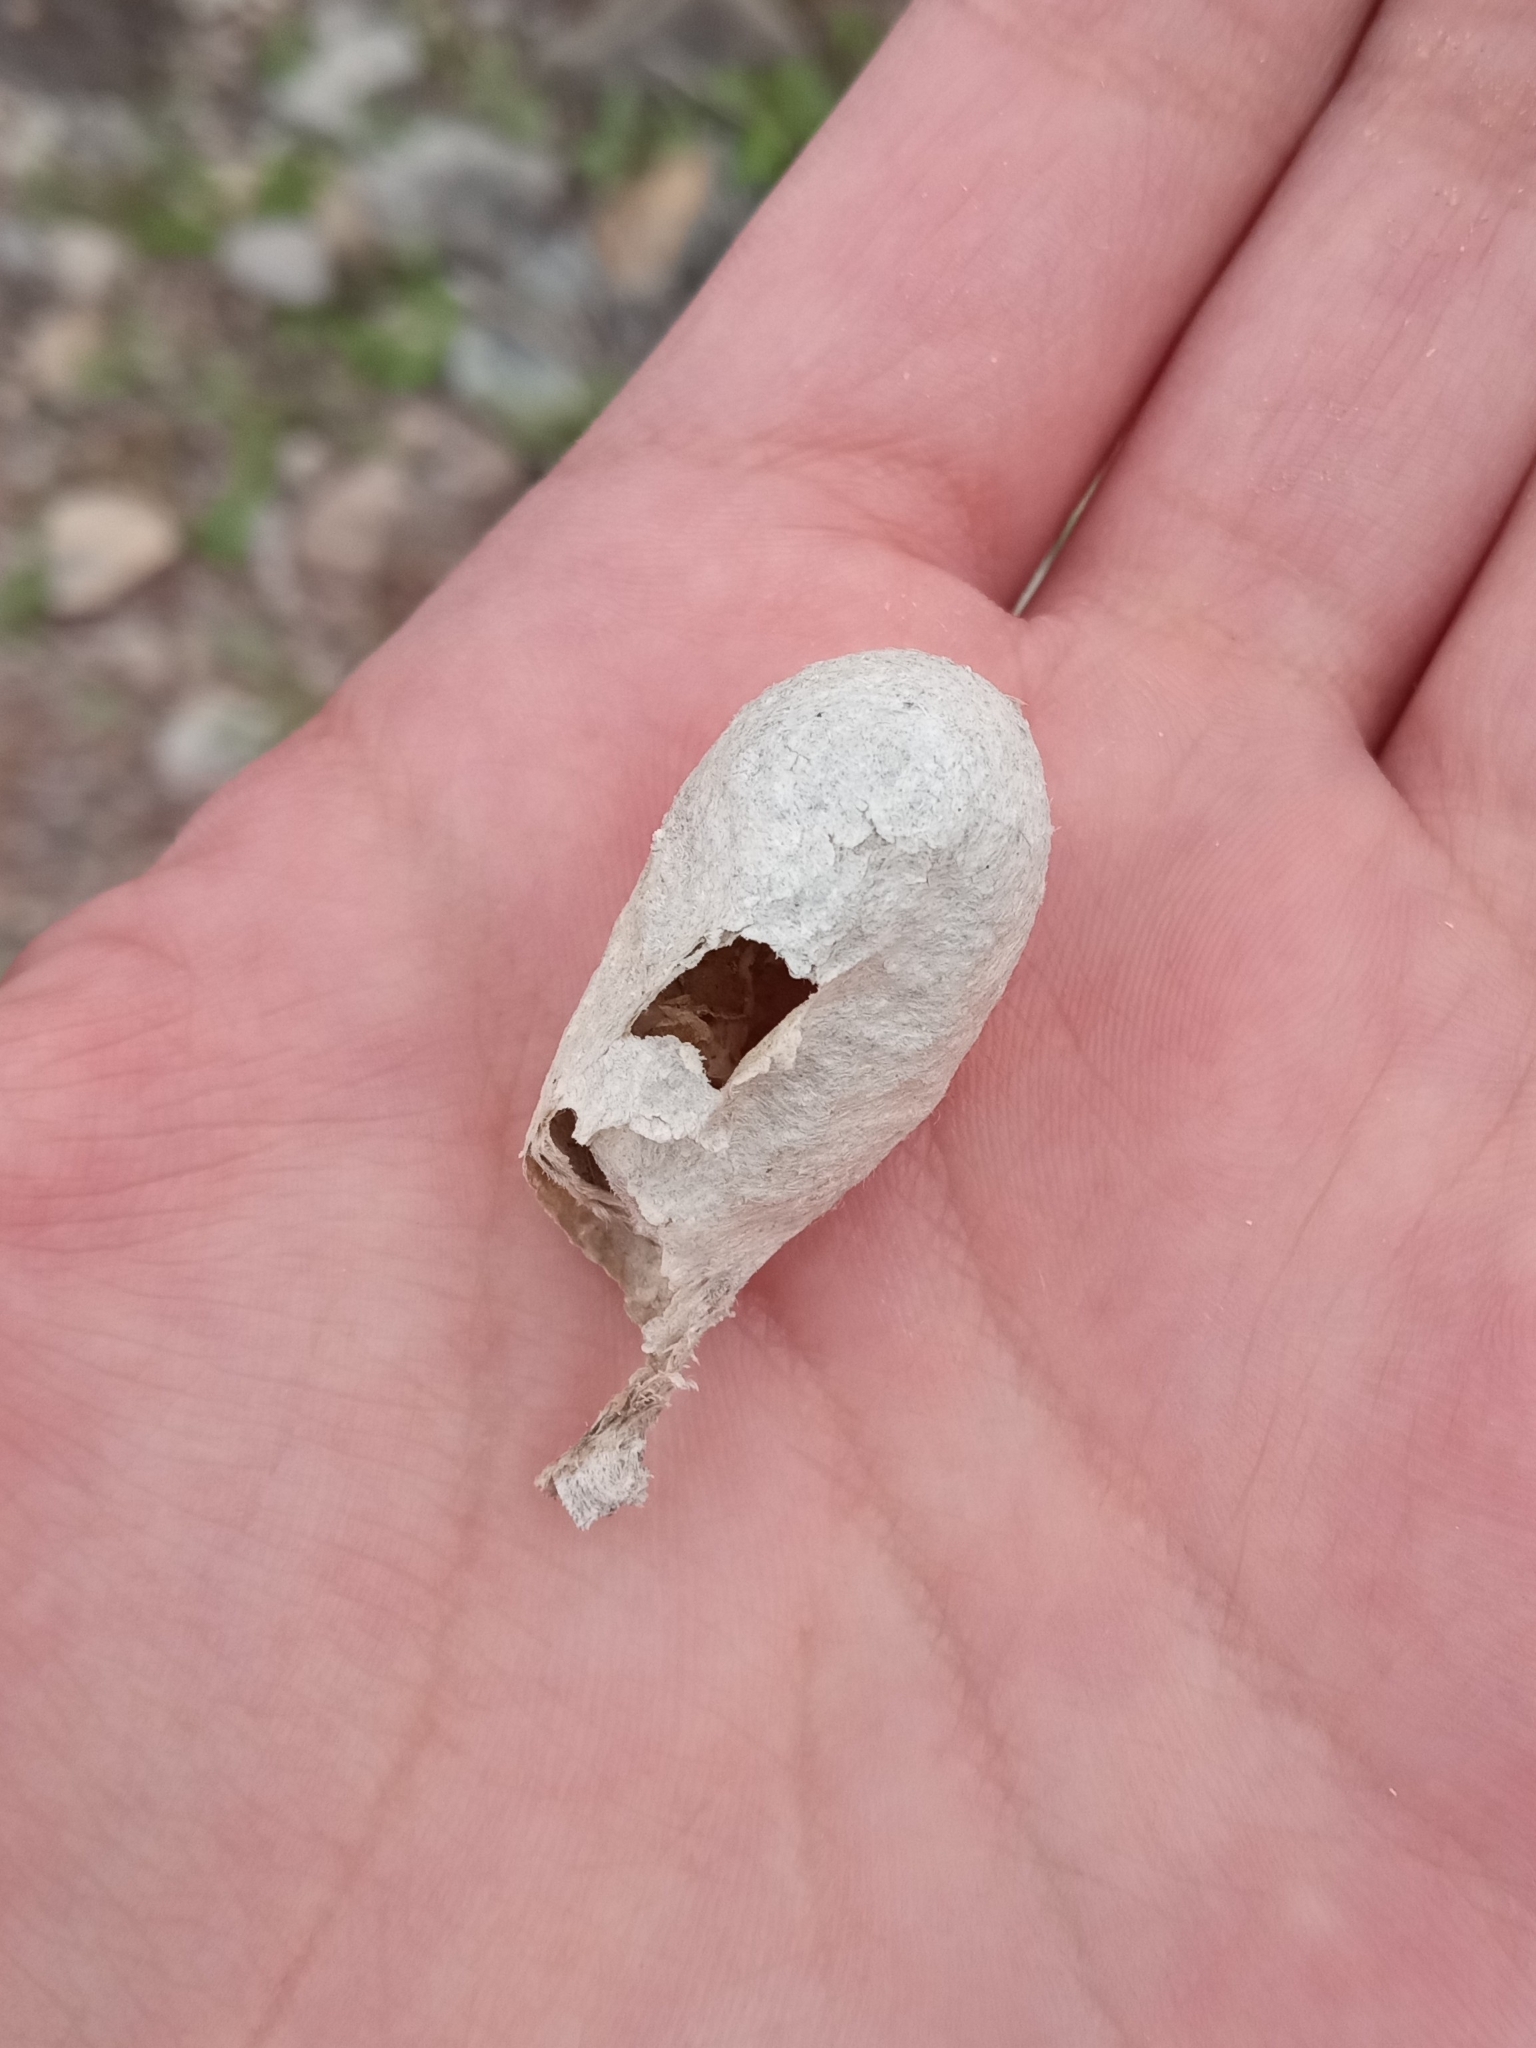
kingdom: Animalia
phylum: Arthropoda
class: Insecta
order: Lepidoptera
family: Saturniidae
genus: Eupackardia
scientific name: Eupackardia calleta
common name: Calleta silkmoth
